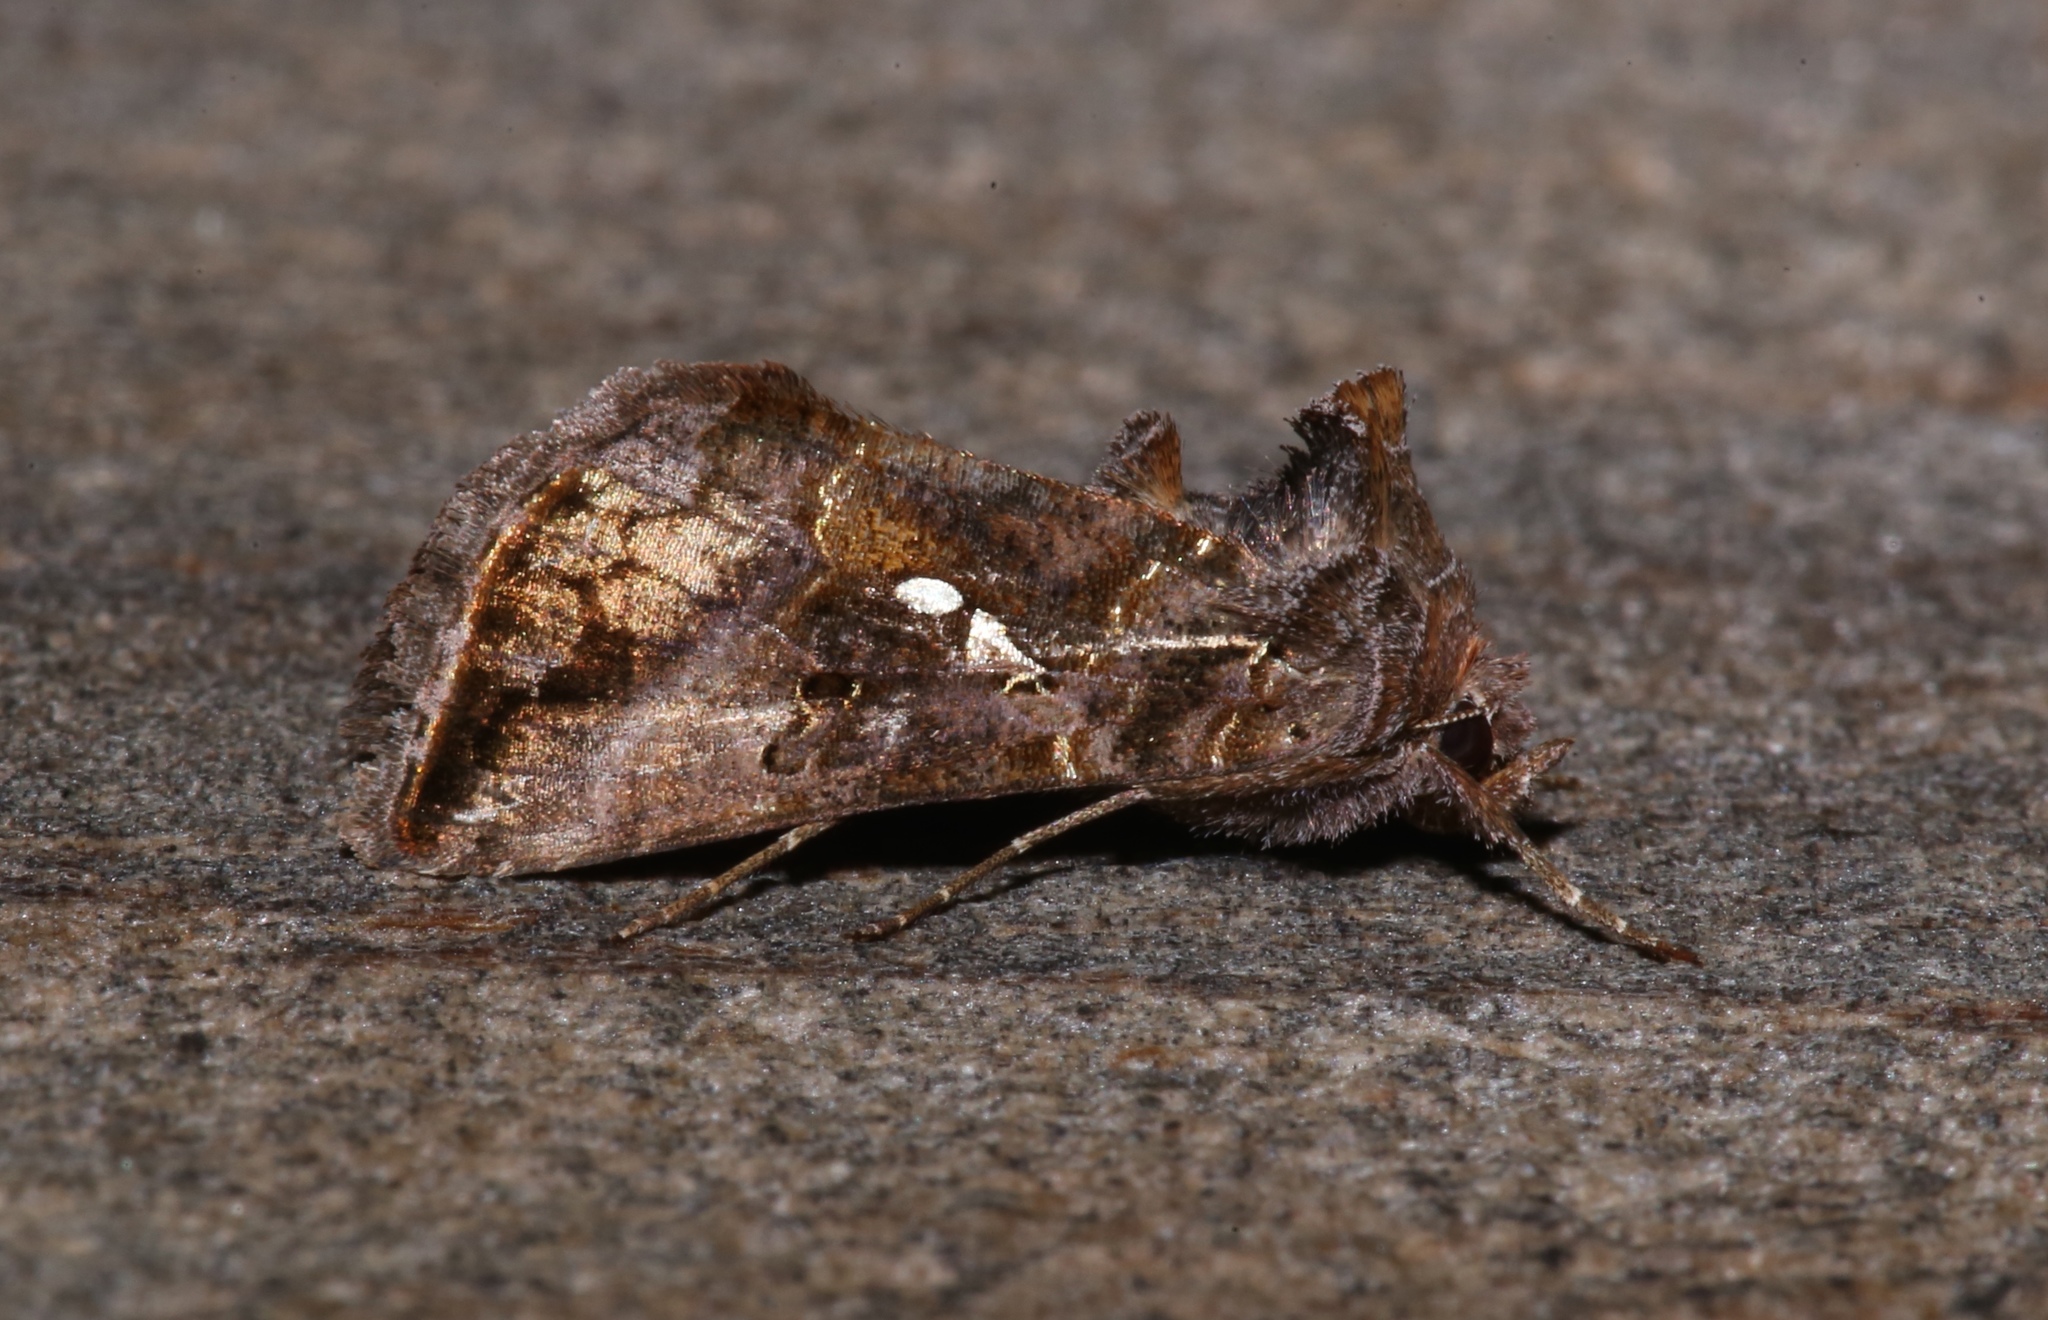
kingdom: Animalia
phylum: Arthropoda
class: Insecta
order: Lepidoptera
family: Noctuidae
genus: Autographa
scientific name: Autographa precationis
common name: Common looper moth
